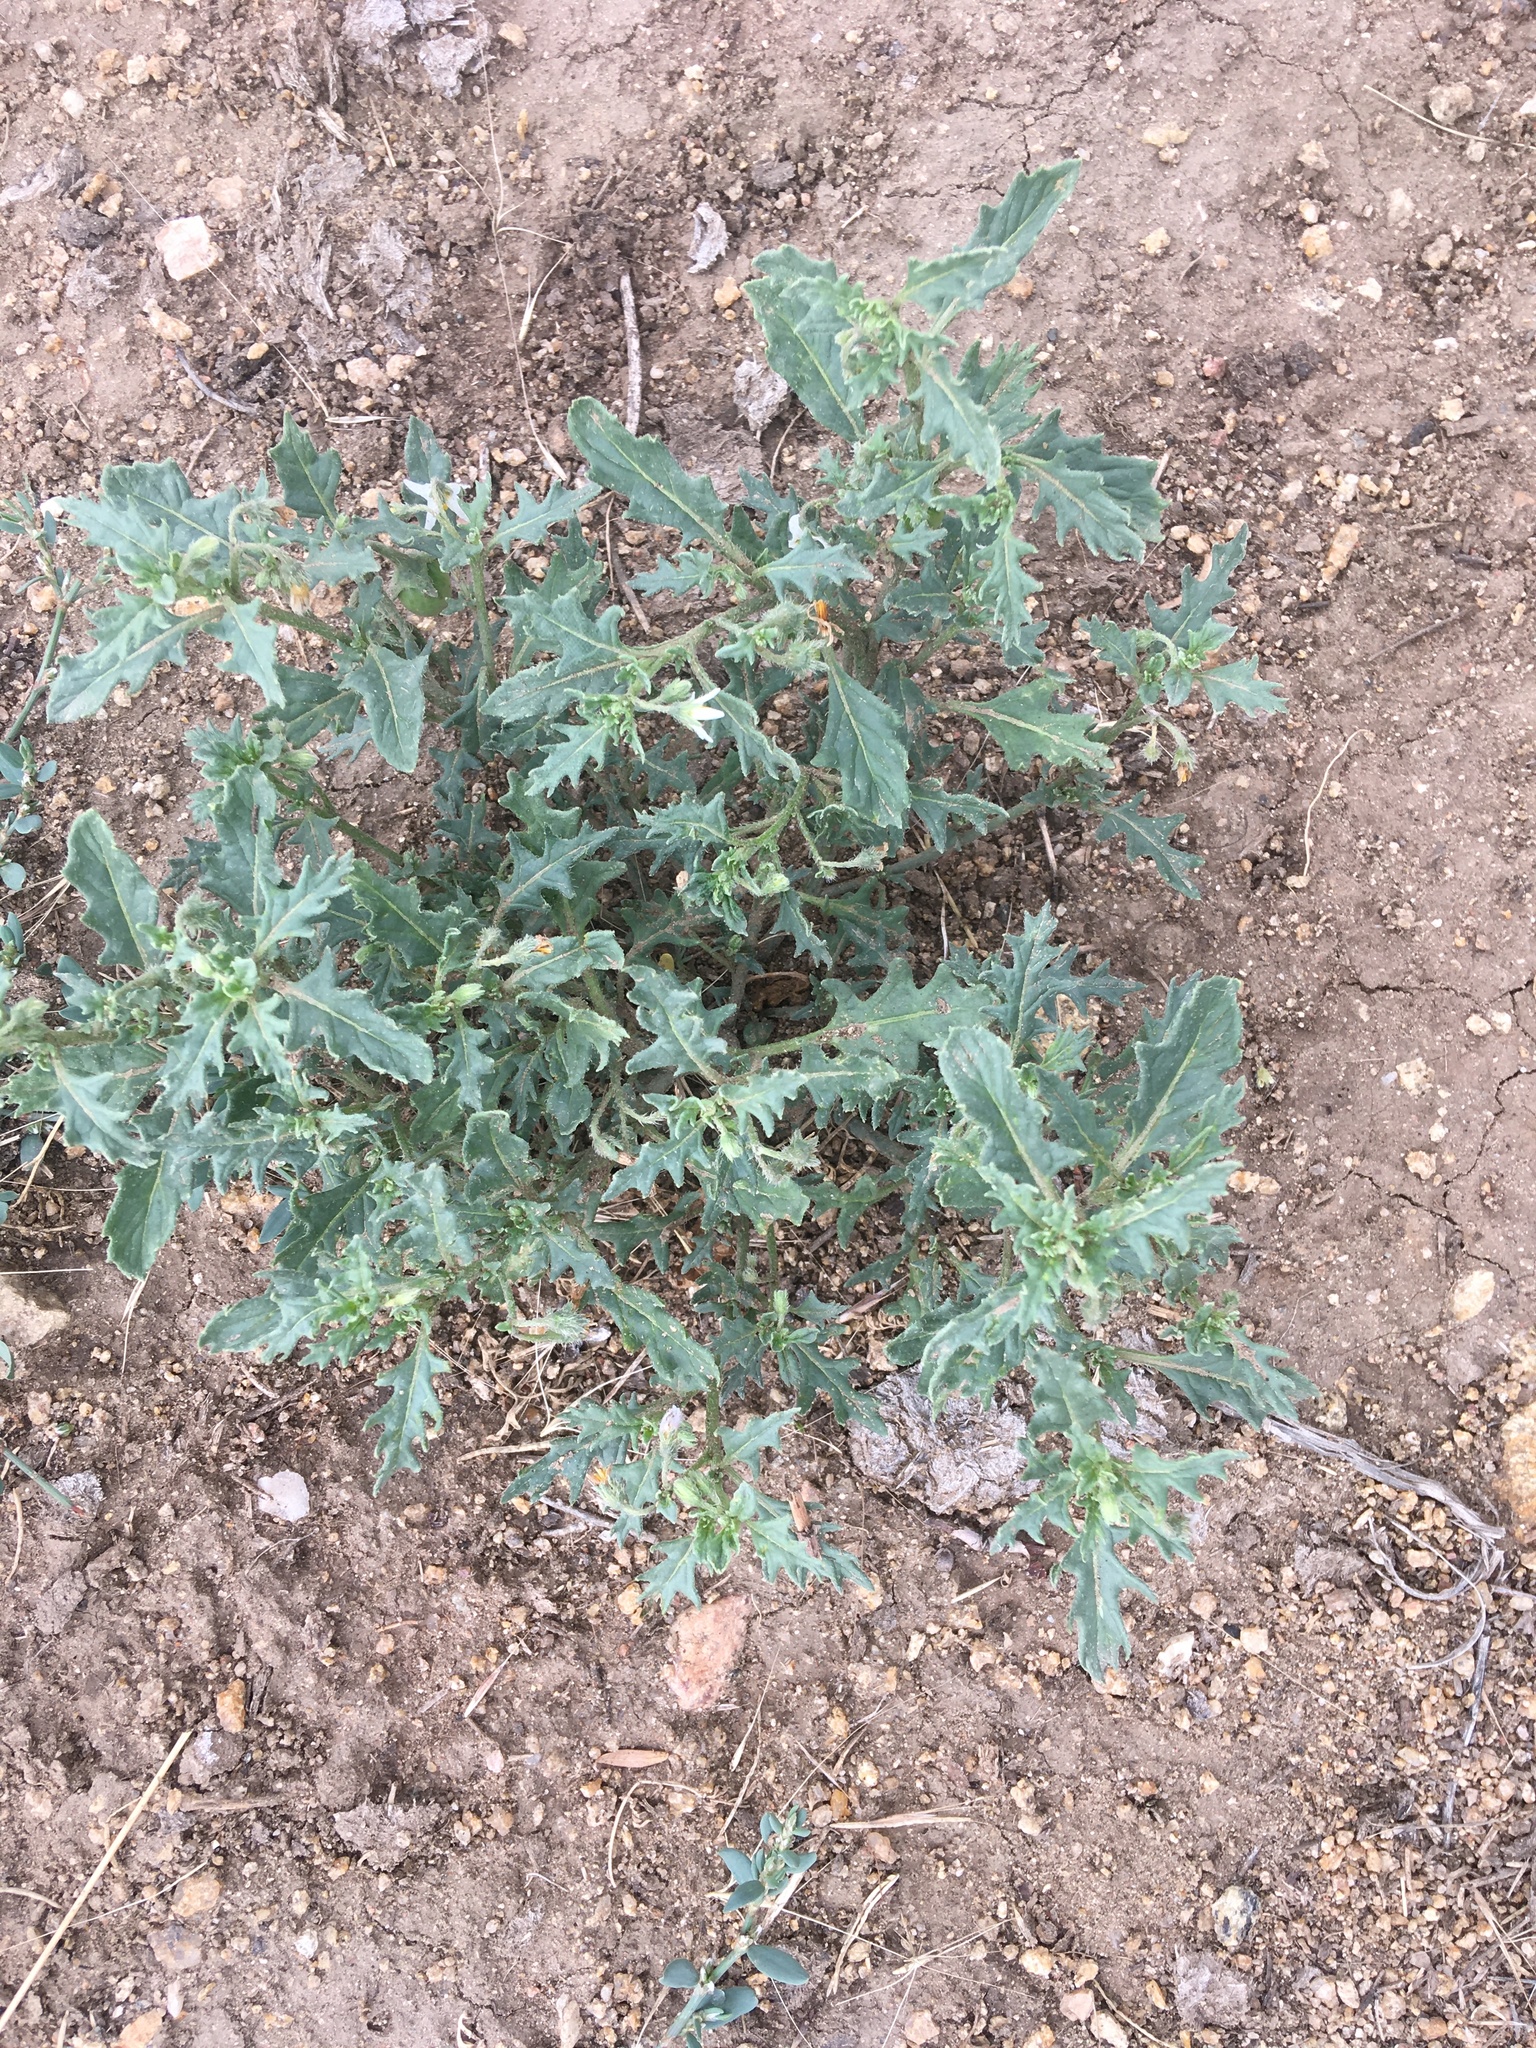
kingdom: Plantae
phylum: Tracheophyta
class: Magnoliopsida
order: Solanales
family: Solanaceae
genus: Solanum
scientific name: Solanum triflorum
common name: Small nightshade
